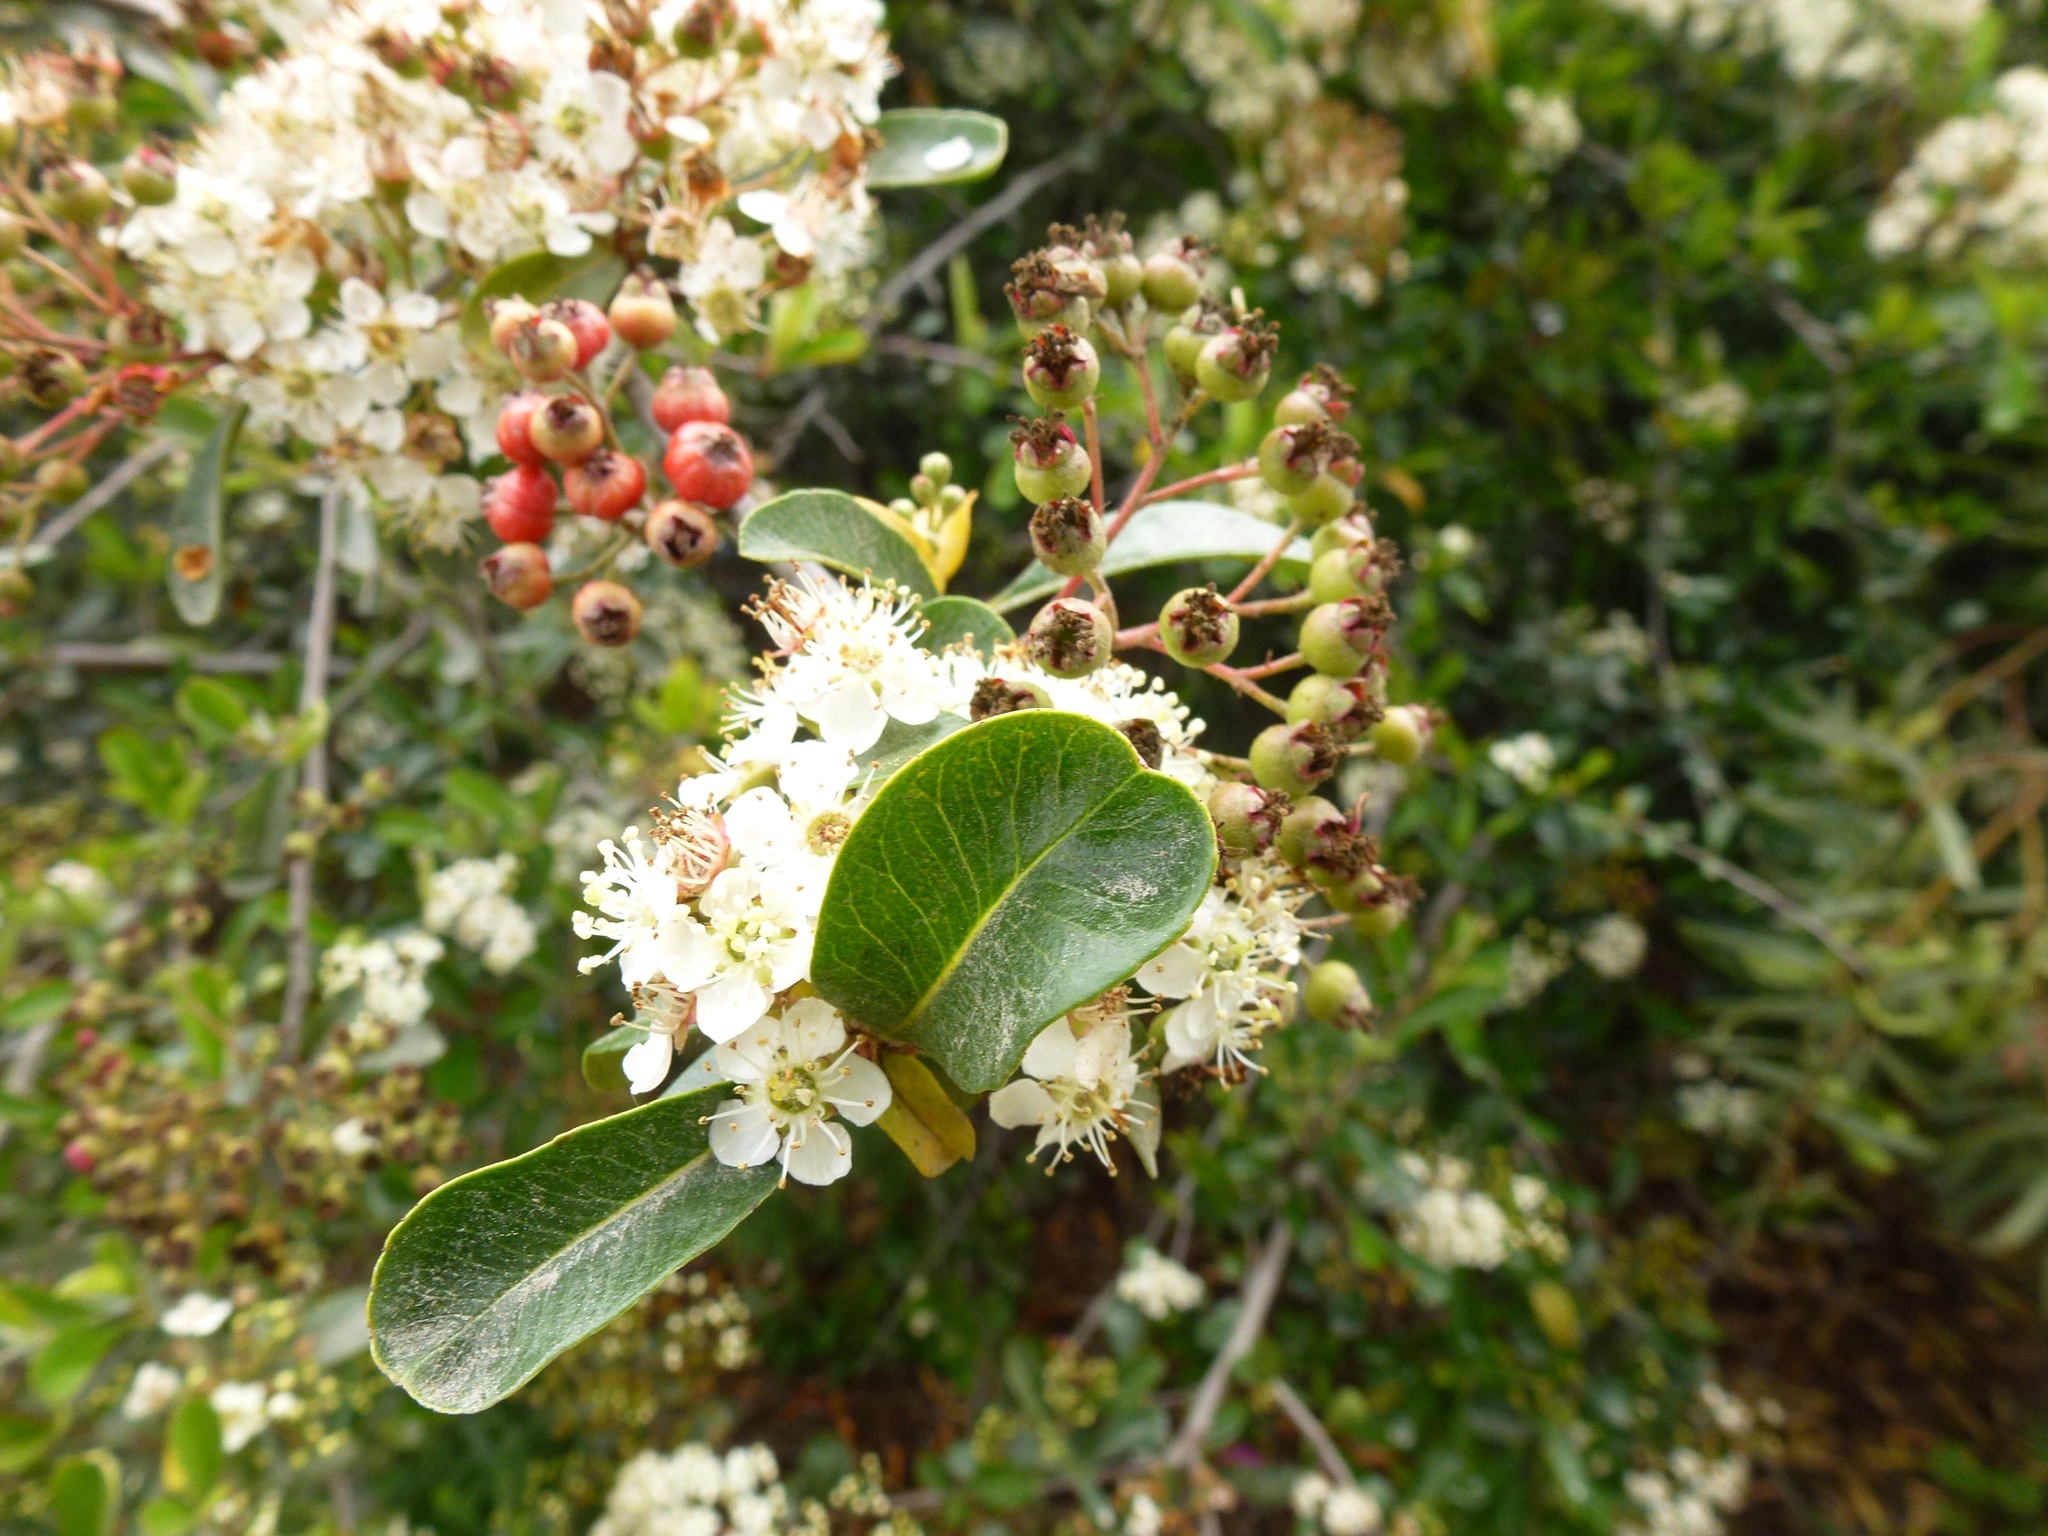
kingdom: Plantae
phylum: Tracheophyta
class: Magnoliopsida
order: Rosales
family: Rosaceae
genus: Pyracantha
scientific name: Pyracantha coccinea
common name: Firethorn
